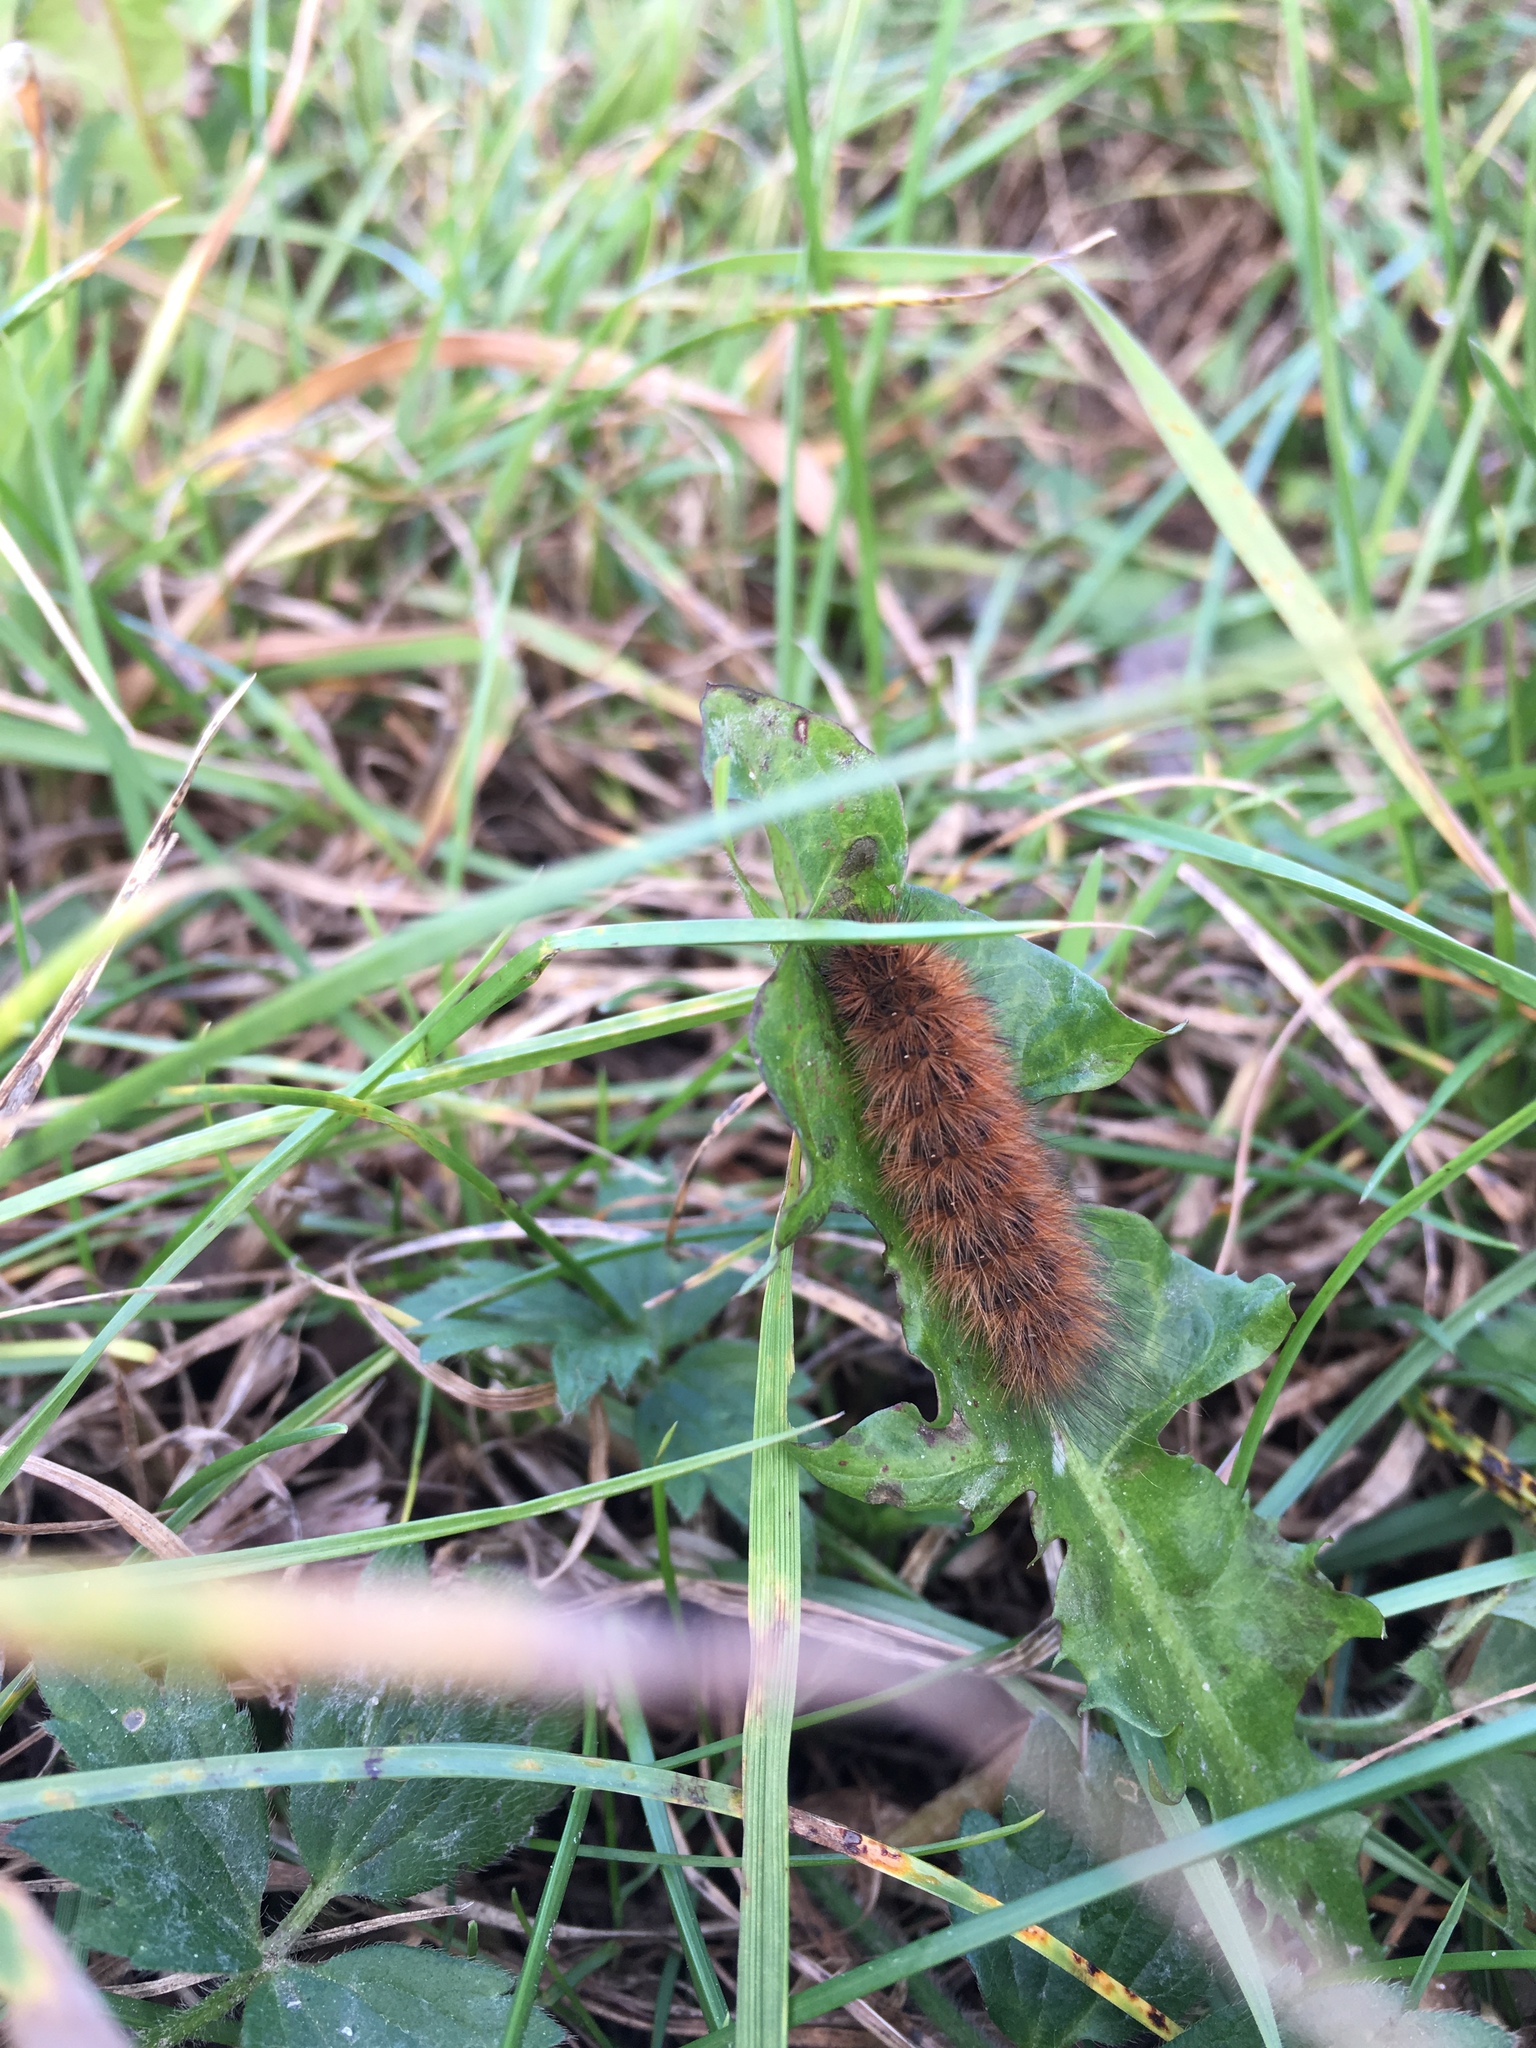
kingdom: Animalia
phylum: Arthropoda
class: Insecta
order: Lepidoptera
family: Erebidae
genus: Phragmatobia
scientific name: Phragmatobia fuliginosa
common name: Ruby tiger
